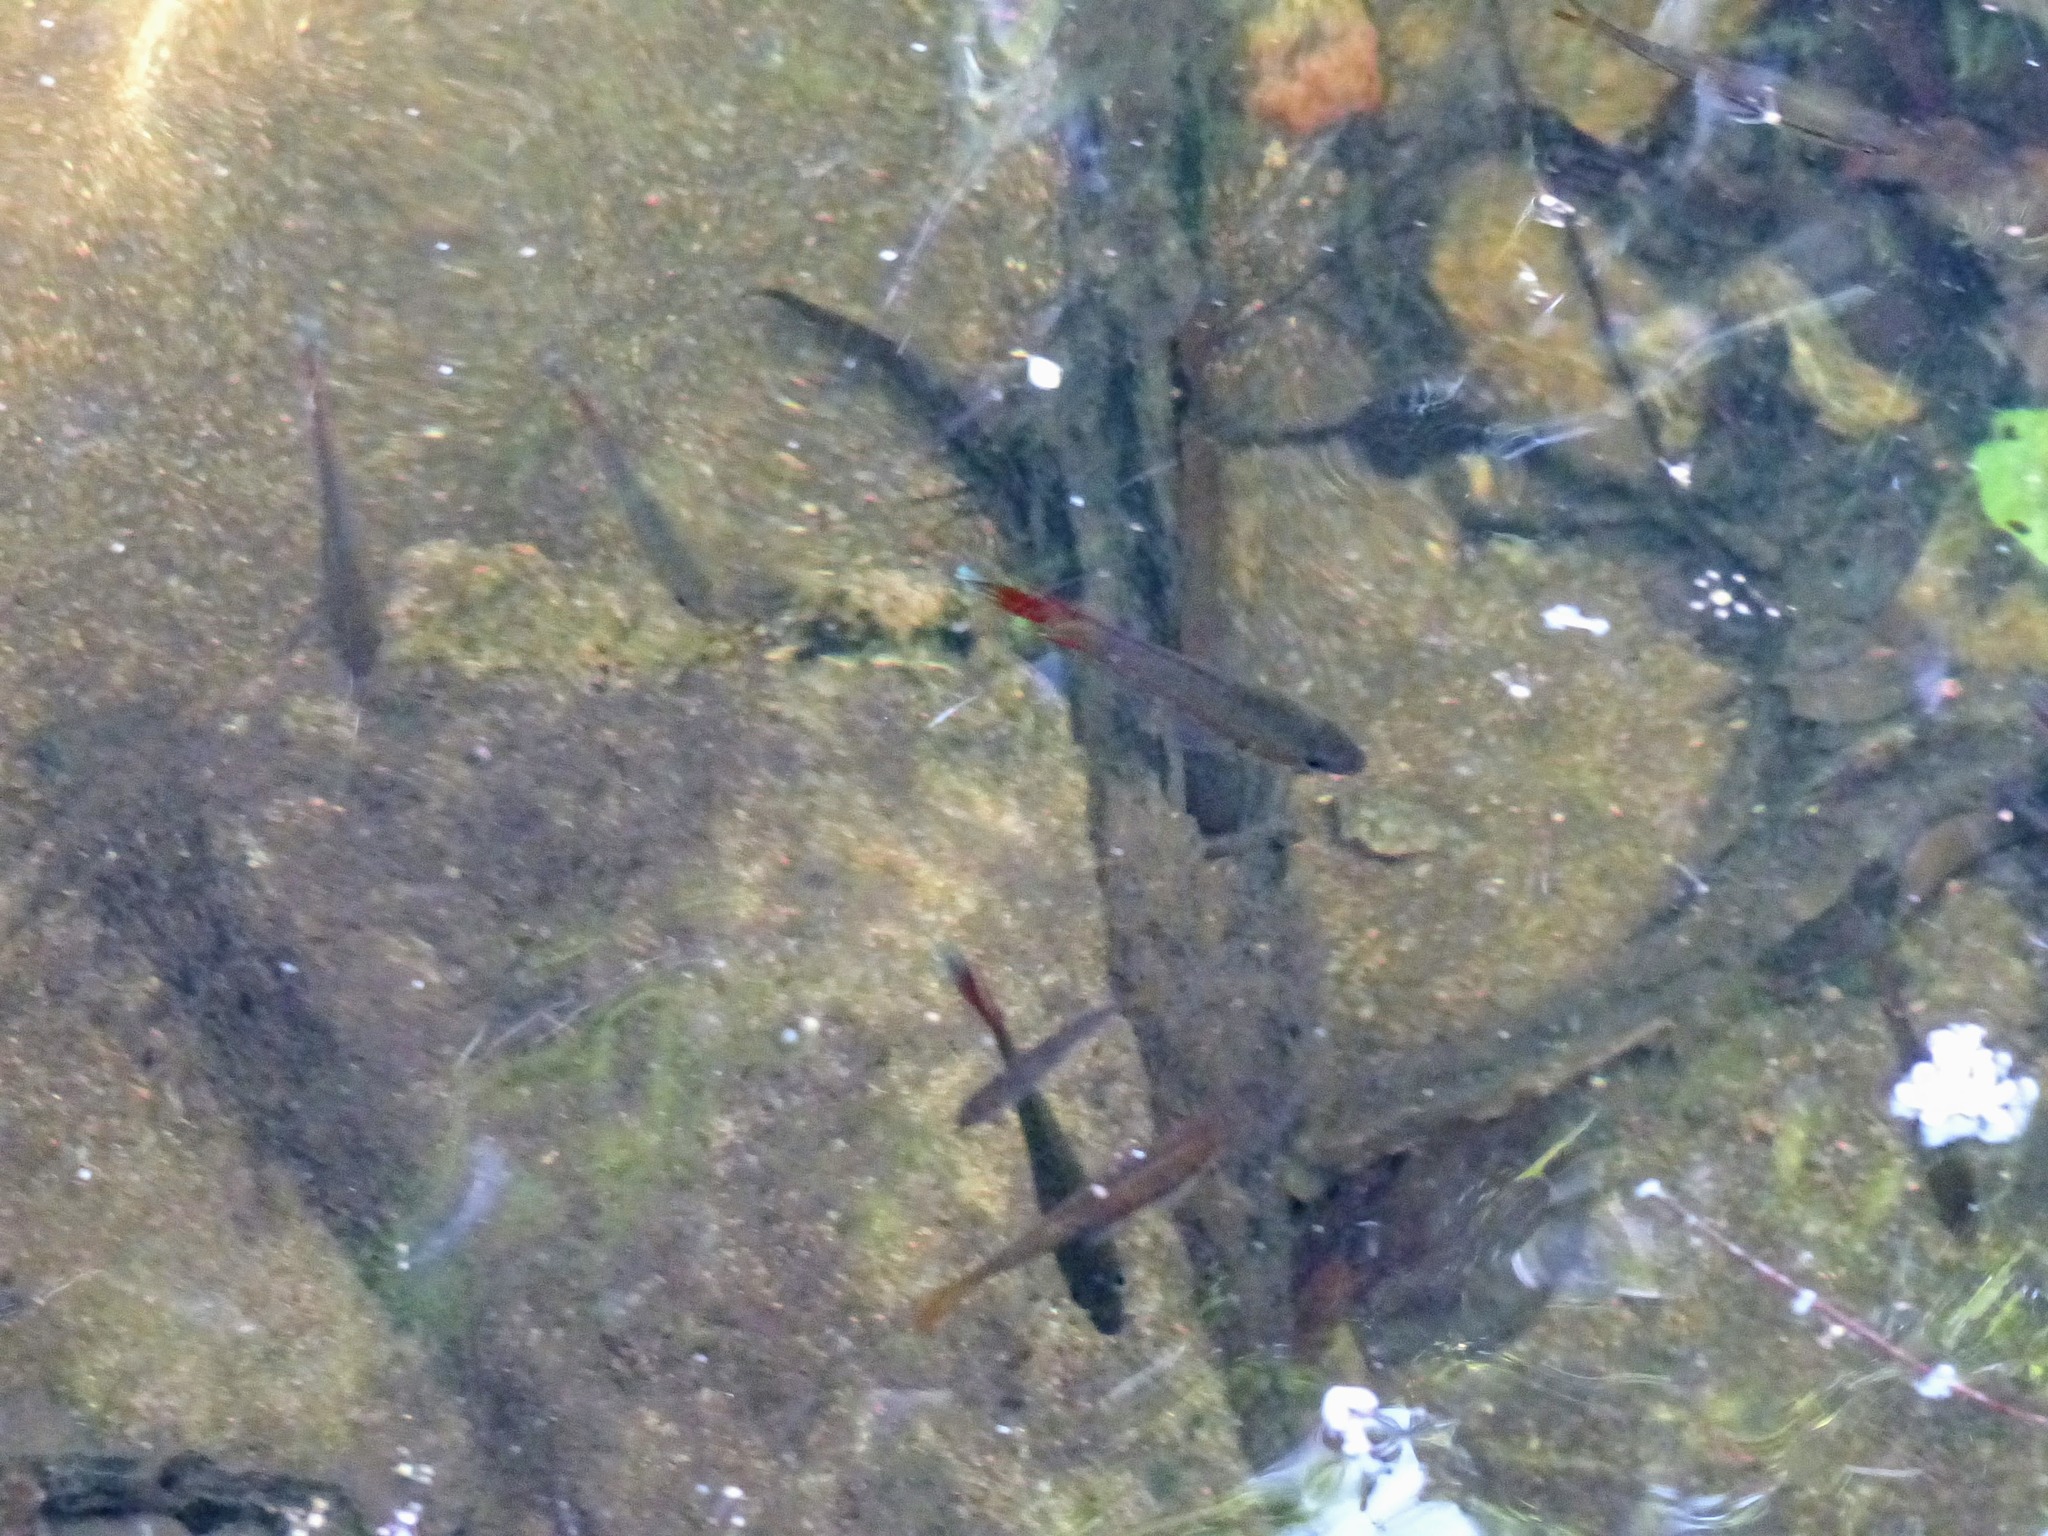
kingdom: Animalia
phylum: Chordata
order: Perciformes
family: Osphronemidae
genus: Belontia
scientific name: Belontia signata
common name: Combtail
